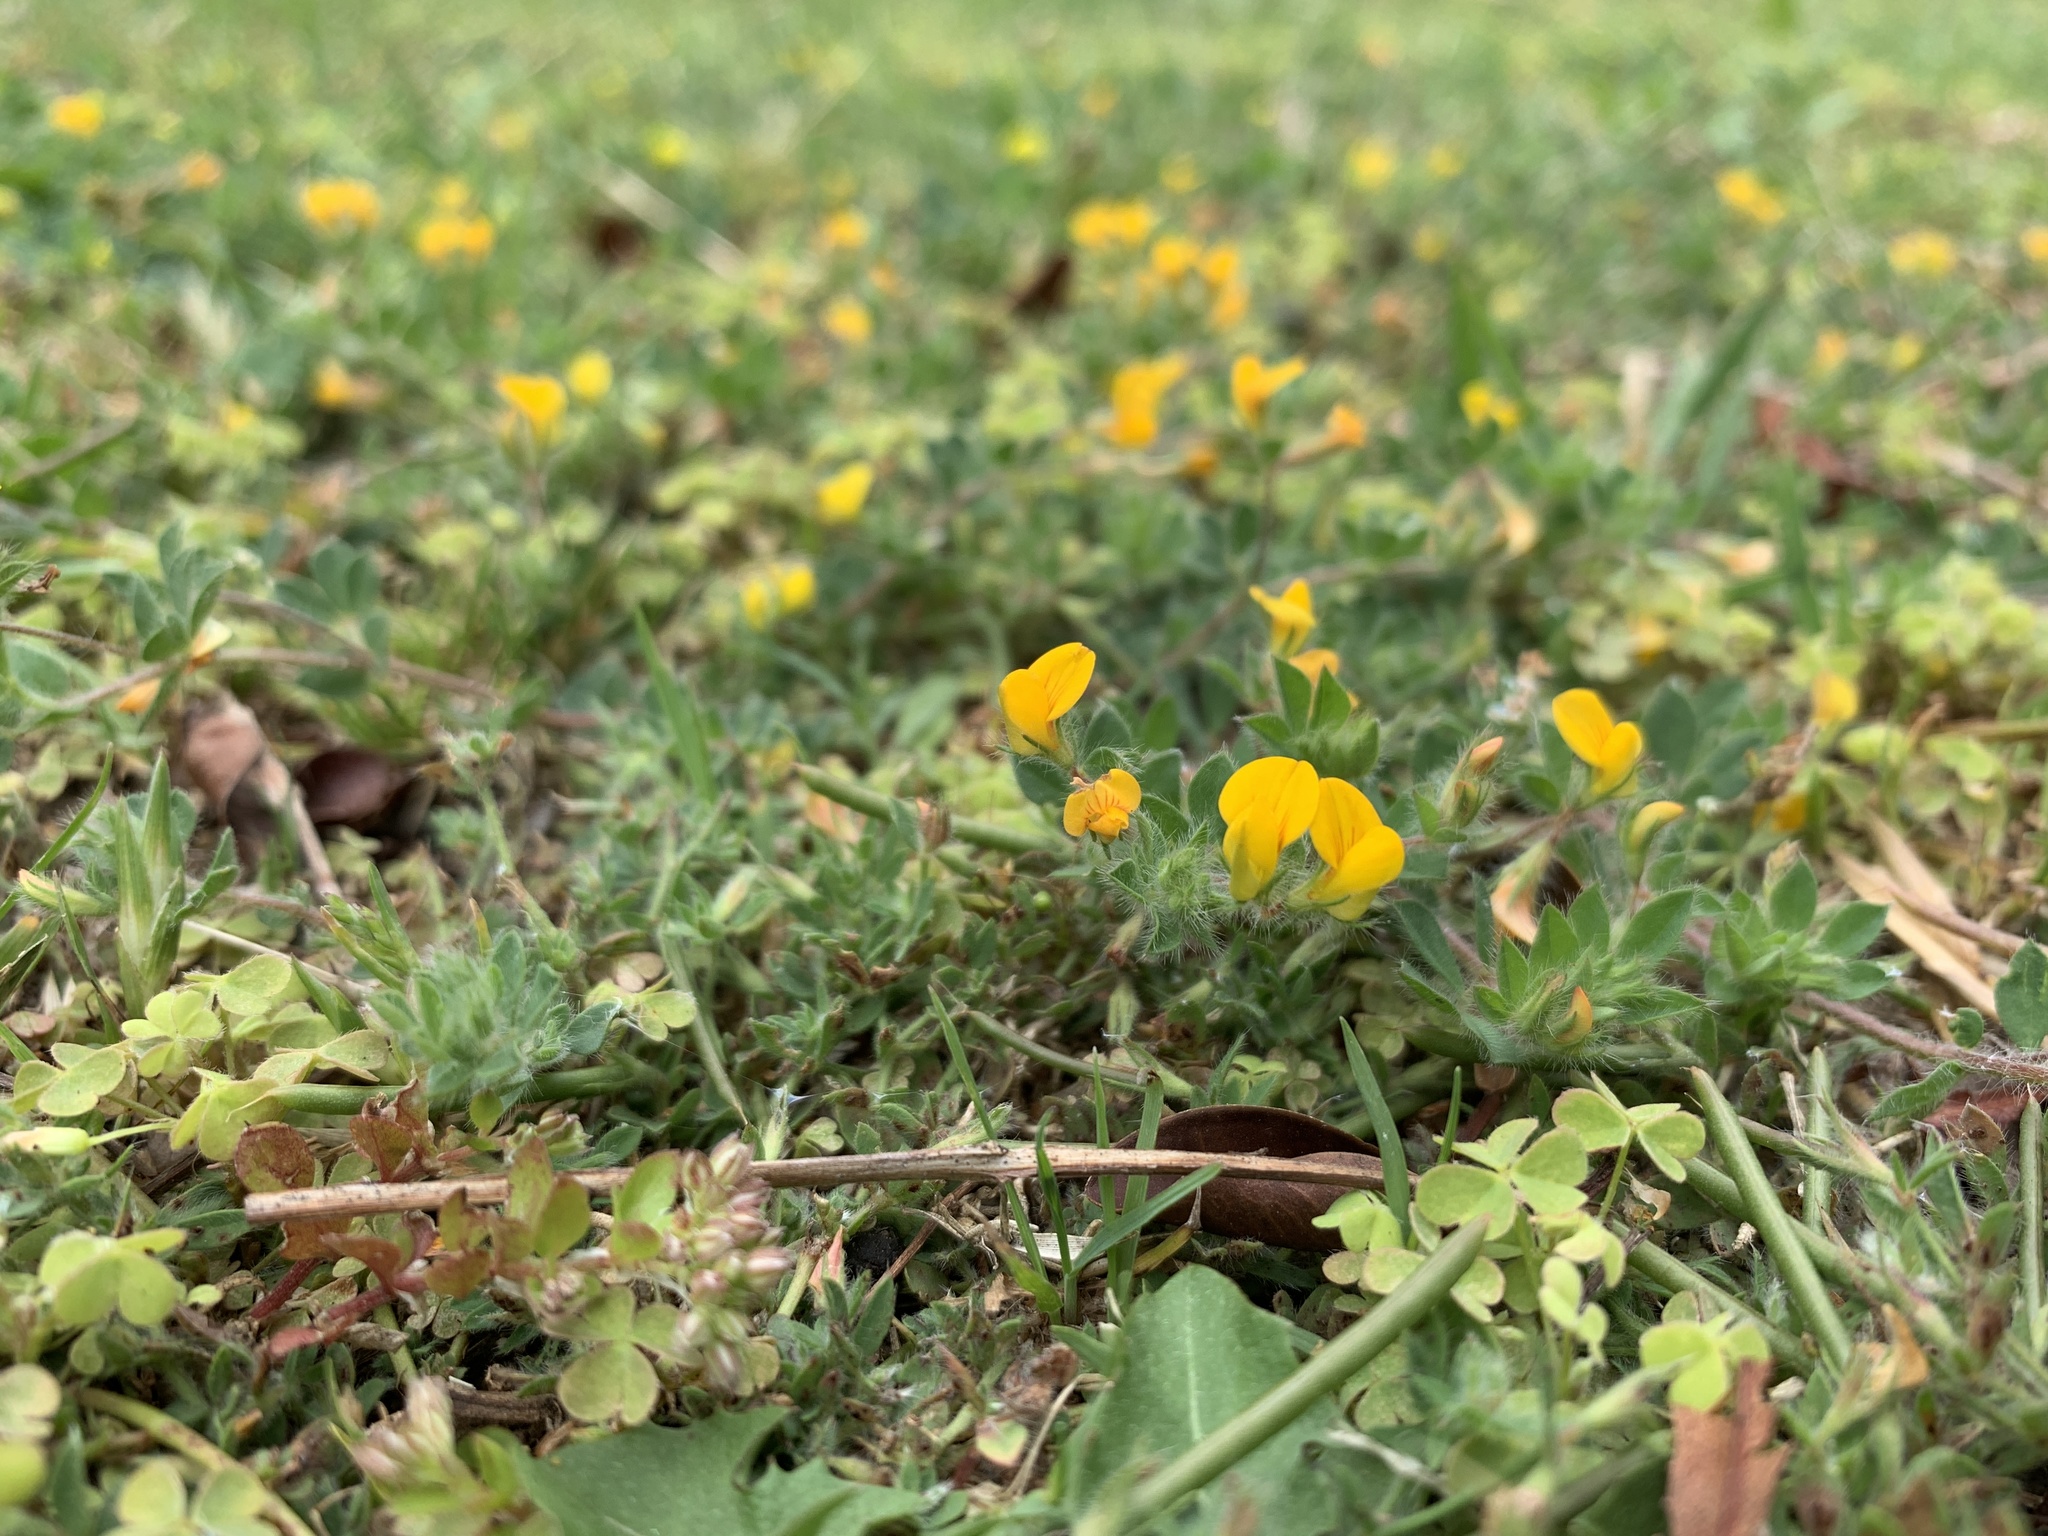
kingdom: Plantae
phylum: Tracheophyta
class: Magnoliopsida
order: Fabales
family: Fabaceae
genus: Lotus
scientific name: Lotus subbiflorus
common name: Hairy bird's-foot trefoil
